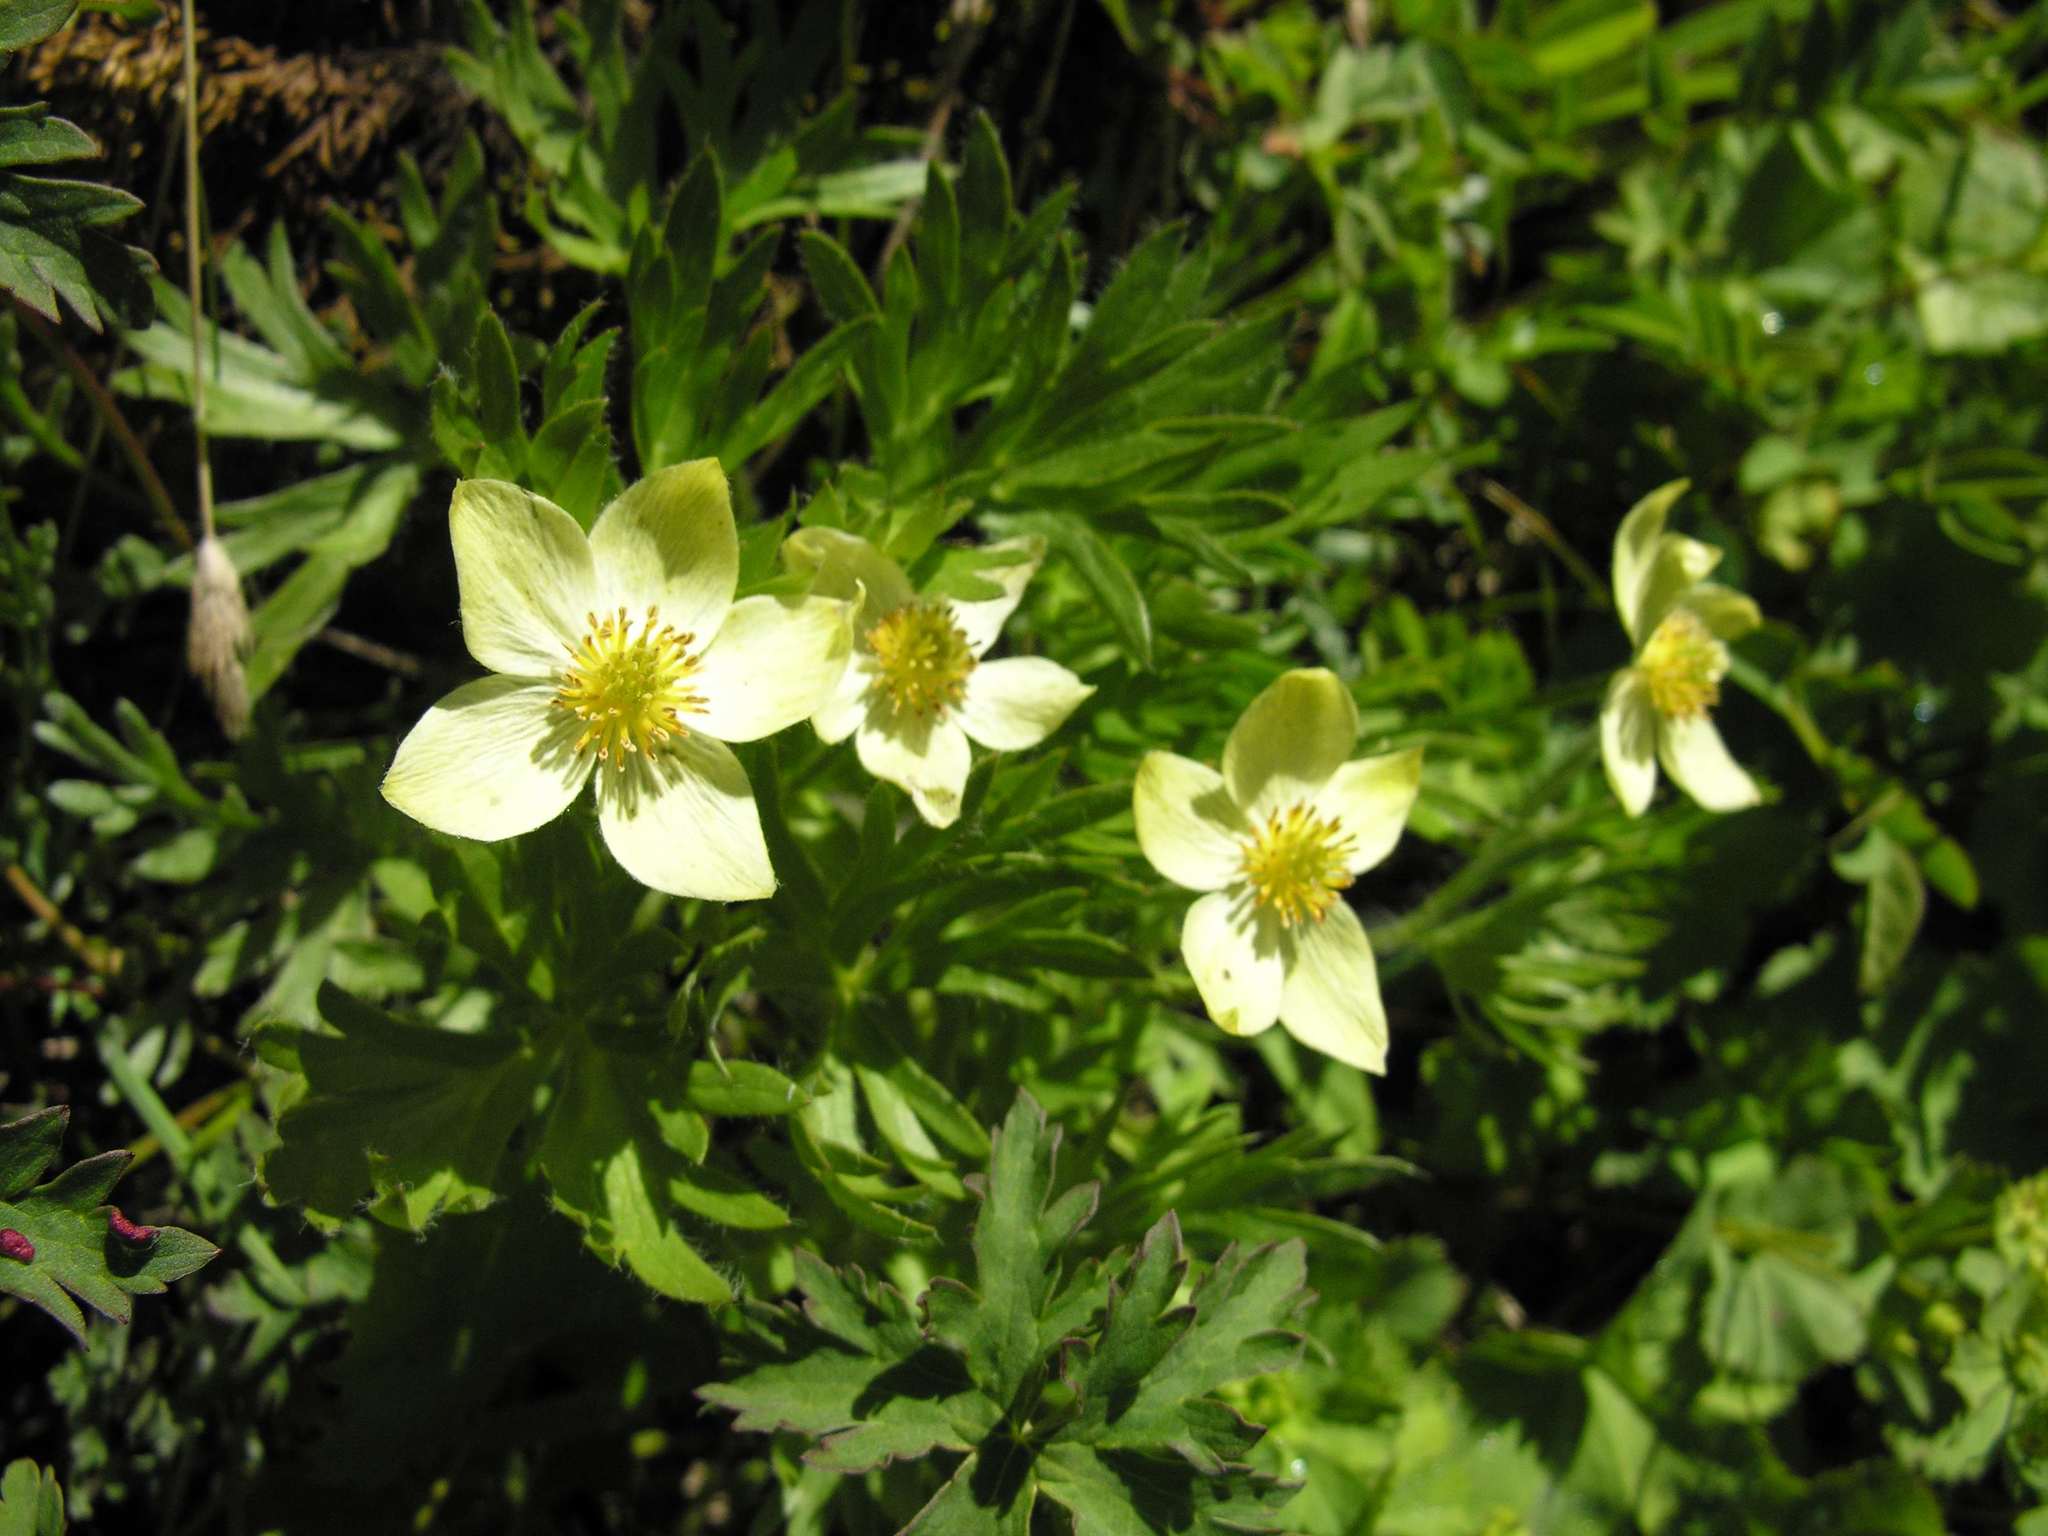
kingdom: Plantae
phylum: Tracheophyta
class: Magnoliopsida
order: Ranunculales
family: Ranunculaceae
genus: Anemonastrum
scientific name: Anemonastrum narcissiflorum
